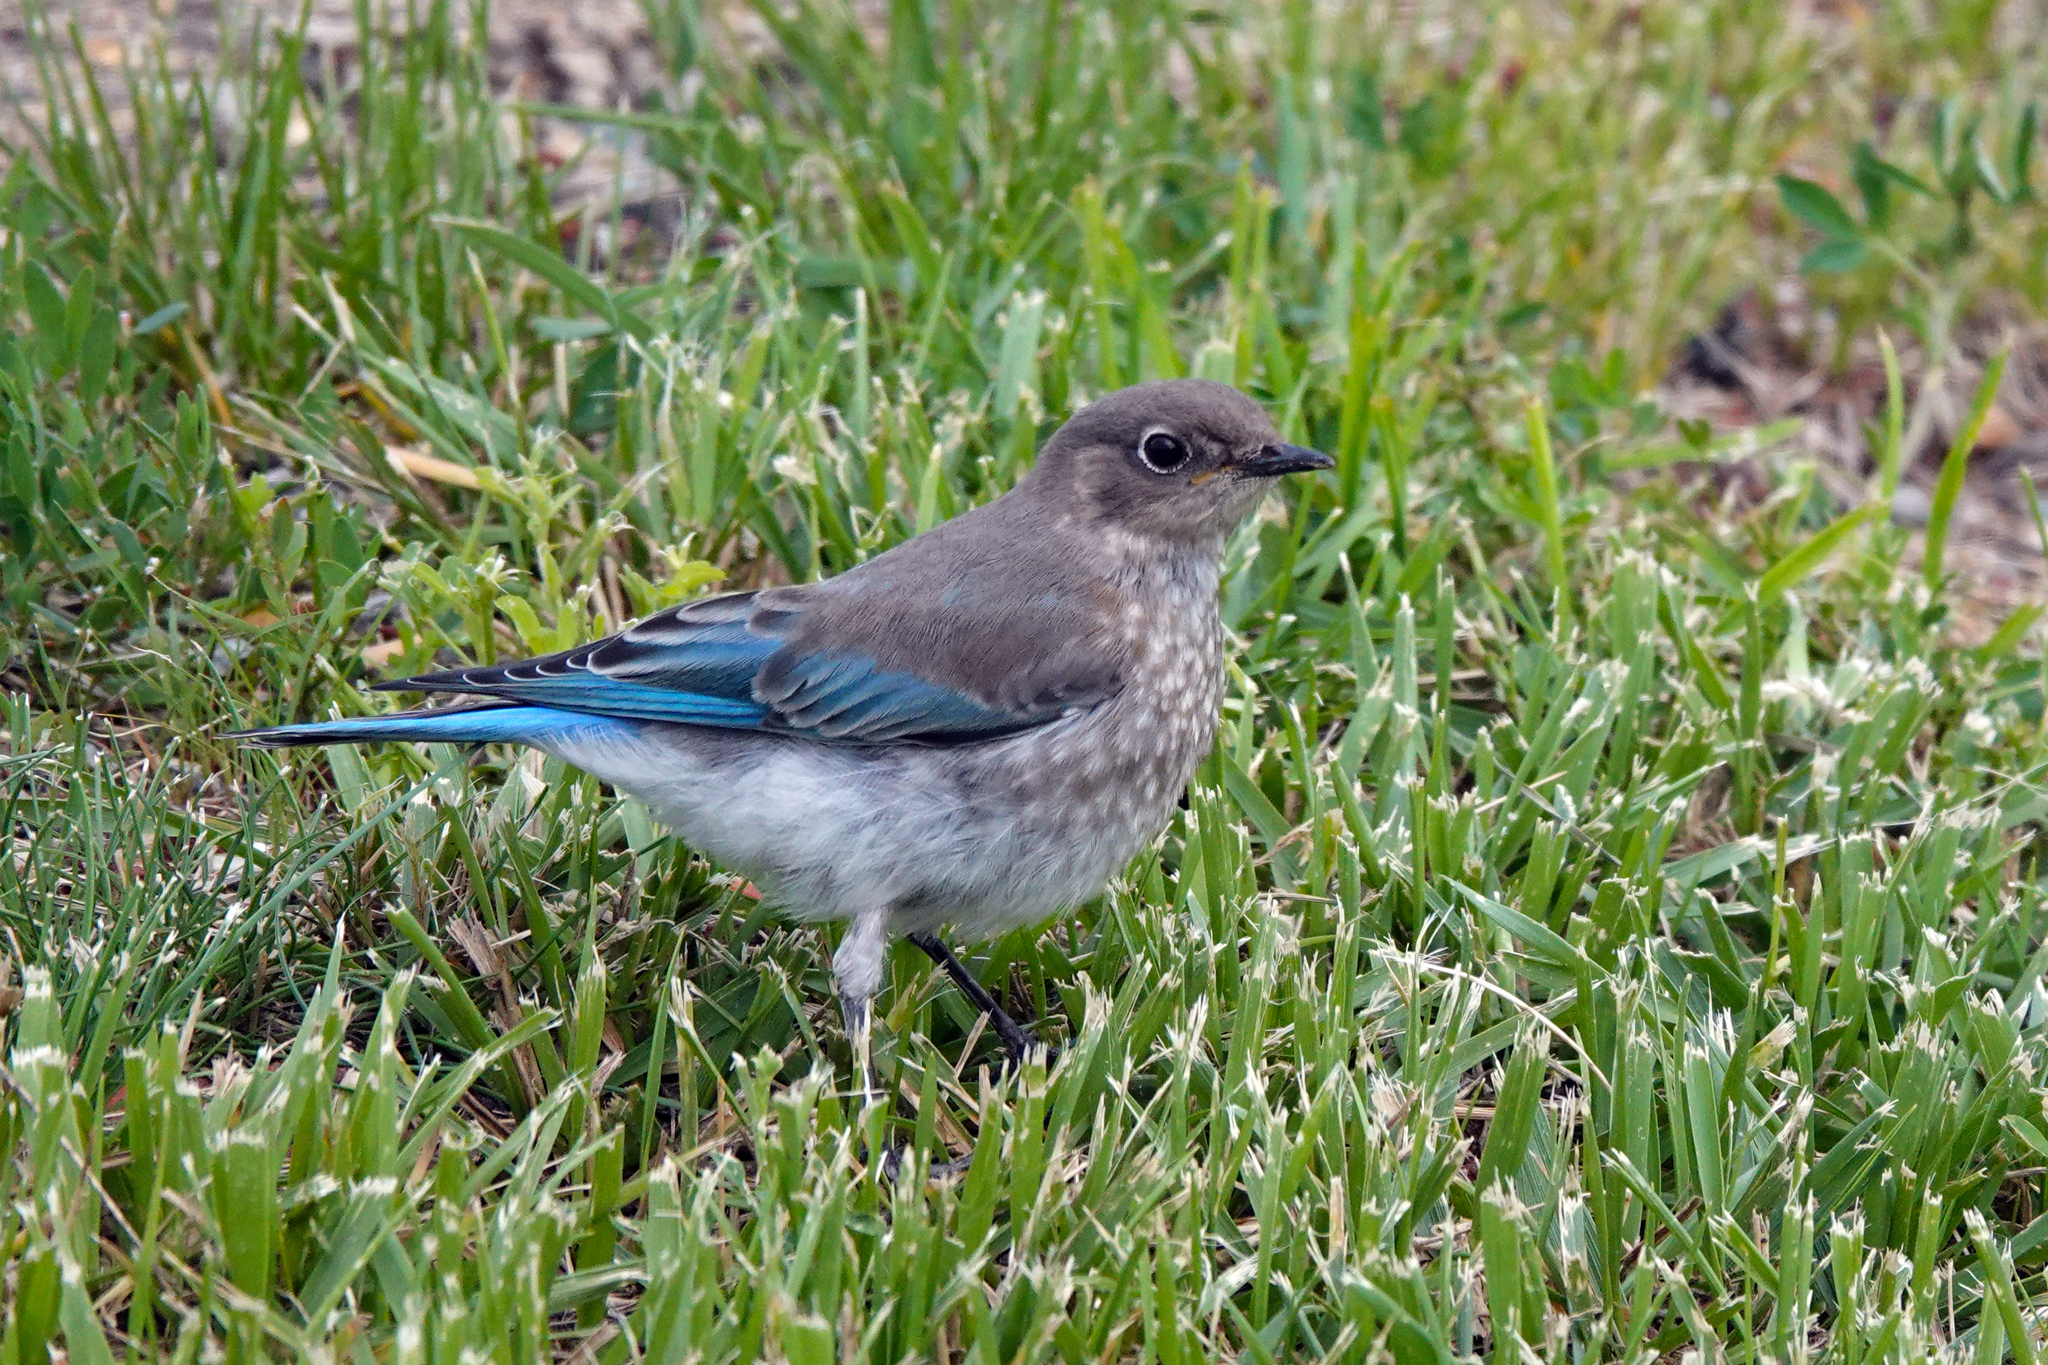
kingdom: Animalia
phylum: Chordata
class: Aves
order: Passeriformes
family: Turdidae
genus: Sialia
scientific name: Sialia currucoides
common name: Mountain bluebird
